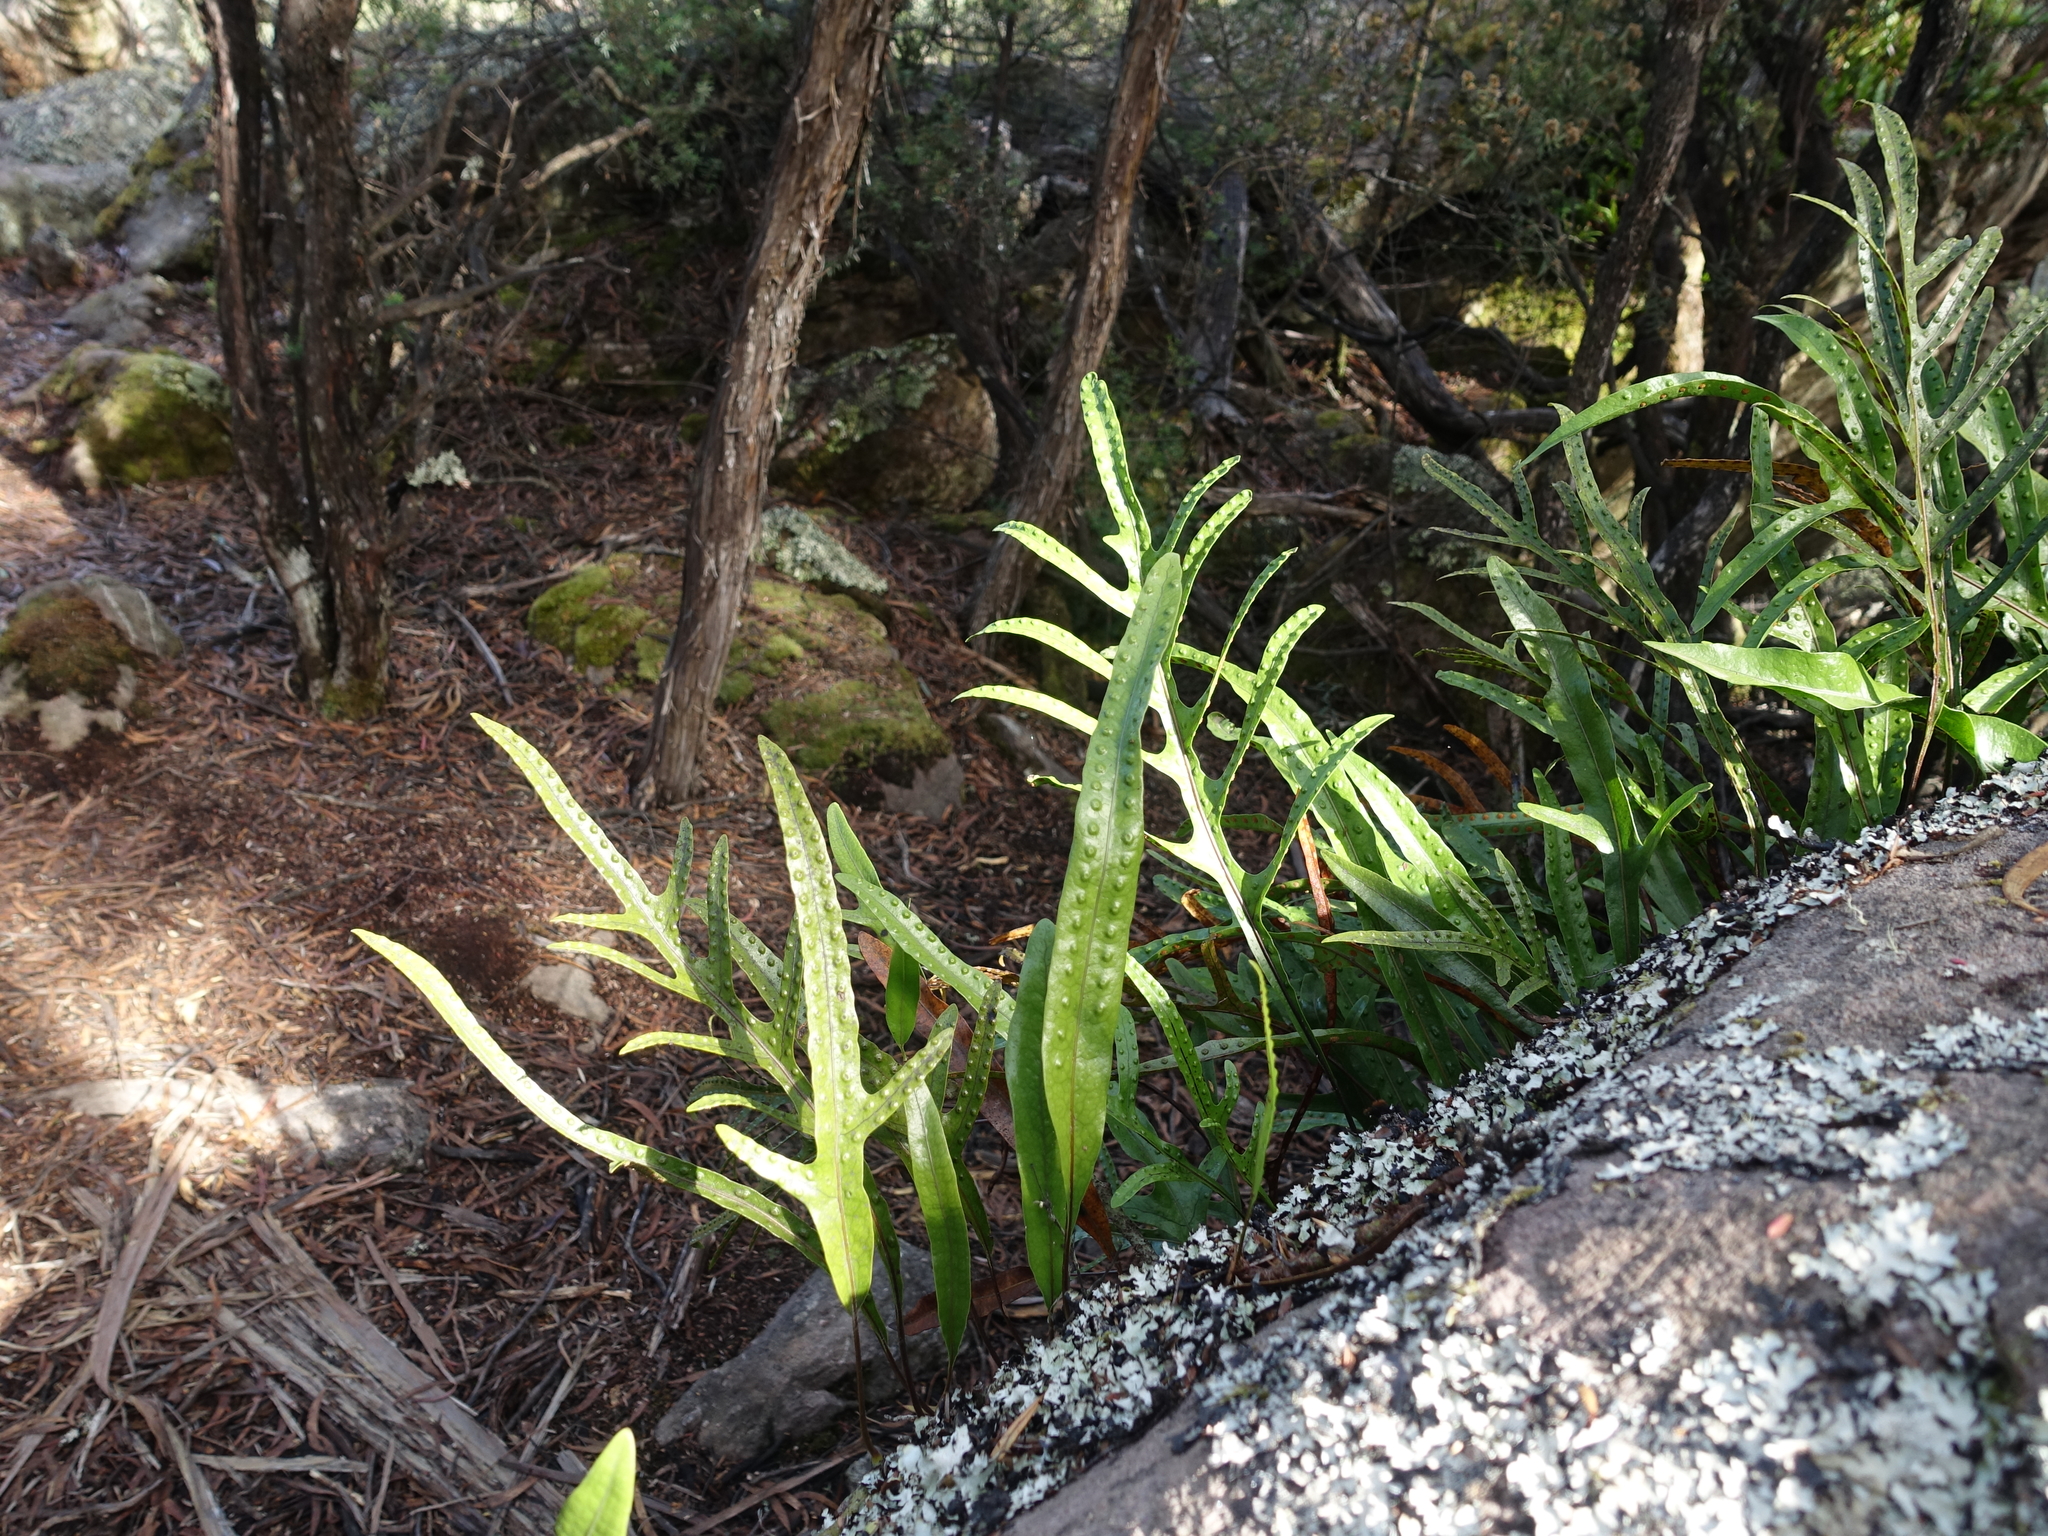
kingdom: Plantae
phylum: Tracheophyta
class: Polypodiopsida
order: Polypodiales
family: Polypodiaceae
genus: Lecanopteris
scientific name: Lecanopteris pustulata
